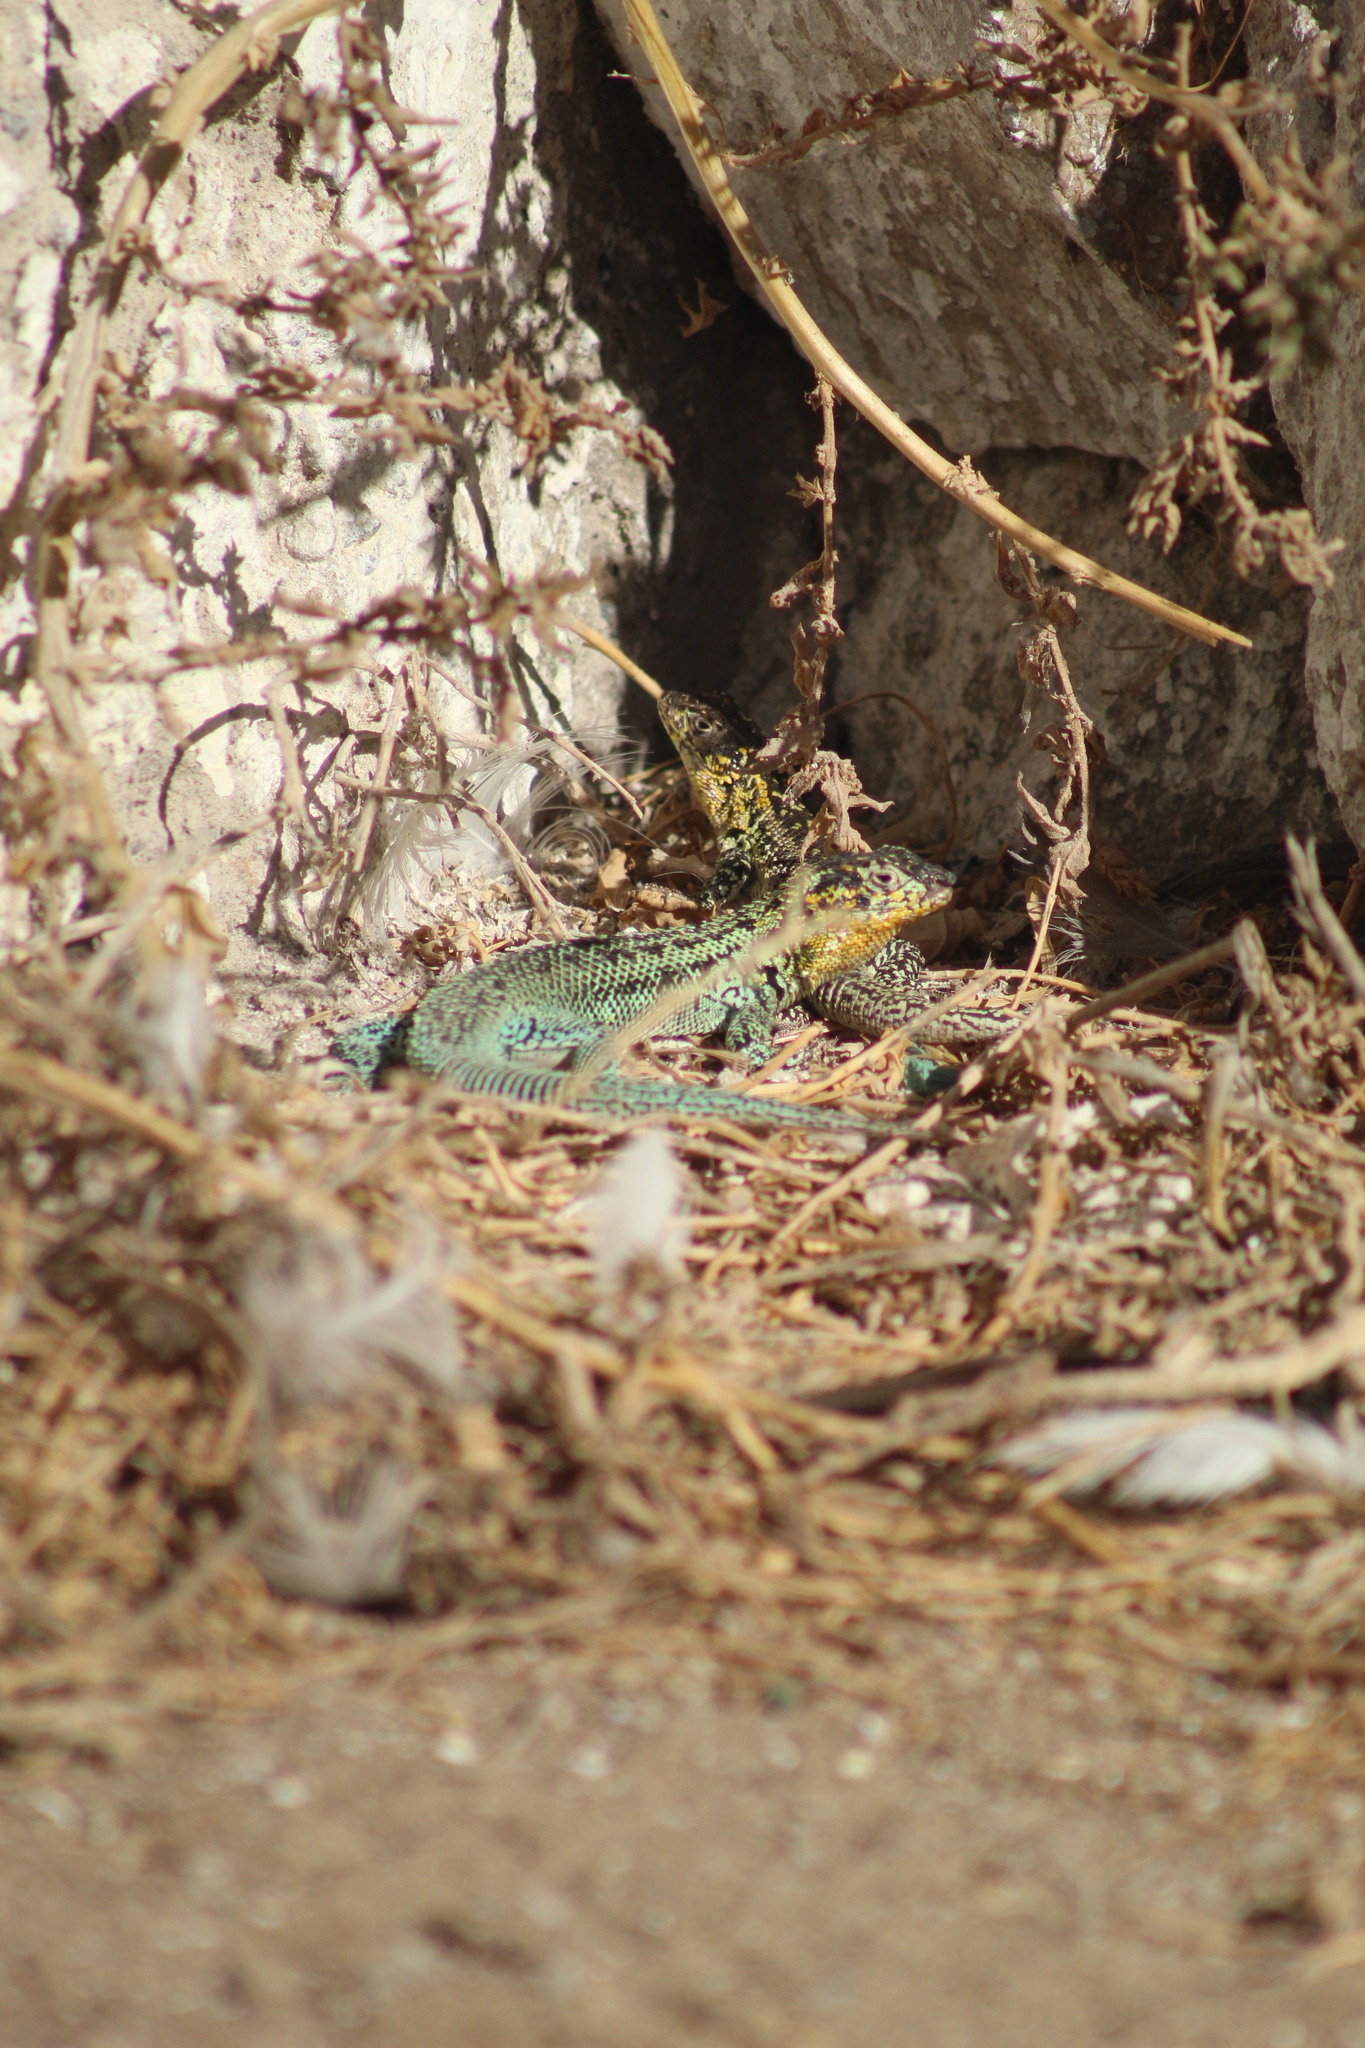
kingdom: Animalia
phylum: Chordata
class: Squamata
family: Liolaemidae
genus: Liolaemus
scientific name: Liolaemus zapallarensis
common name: Zapallaren tree iguana
